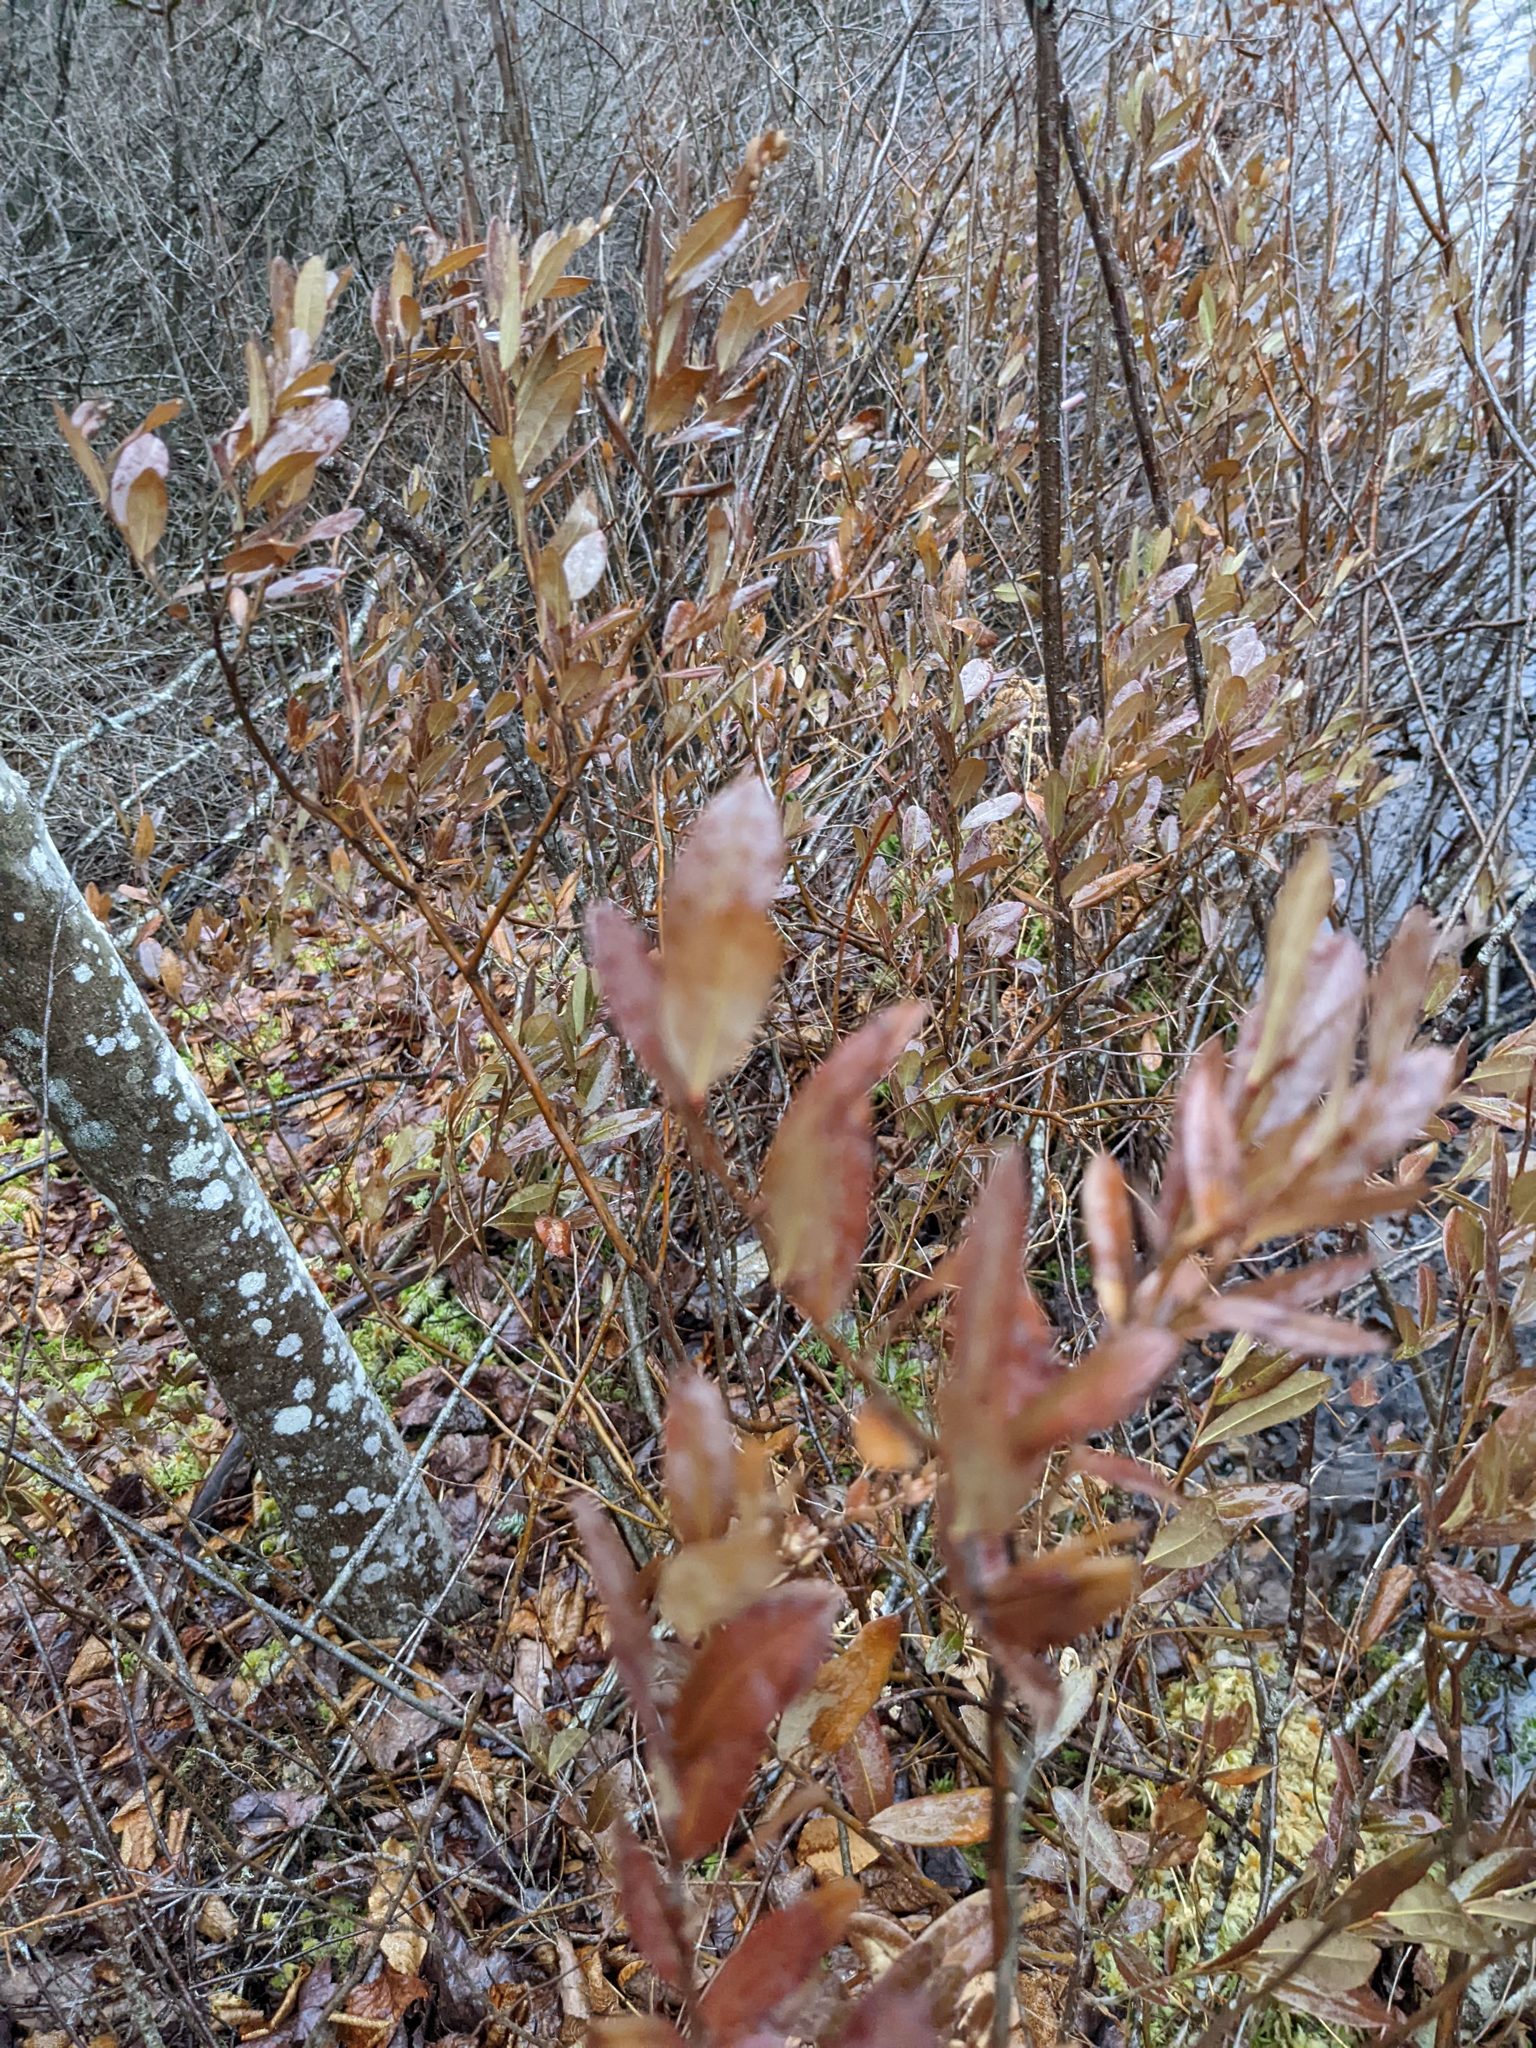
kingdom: Plantae
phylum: Tracheophyta
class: Magnoliopsida
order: Ericales
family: Ericaceae
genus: Chamaedaphne
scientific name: Chamaedaphne calyculata
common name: Leatherleaf
